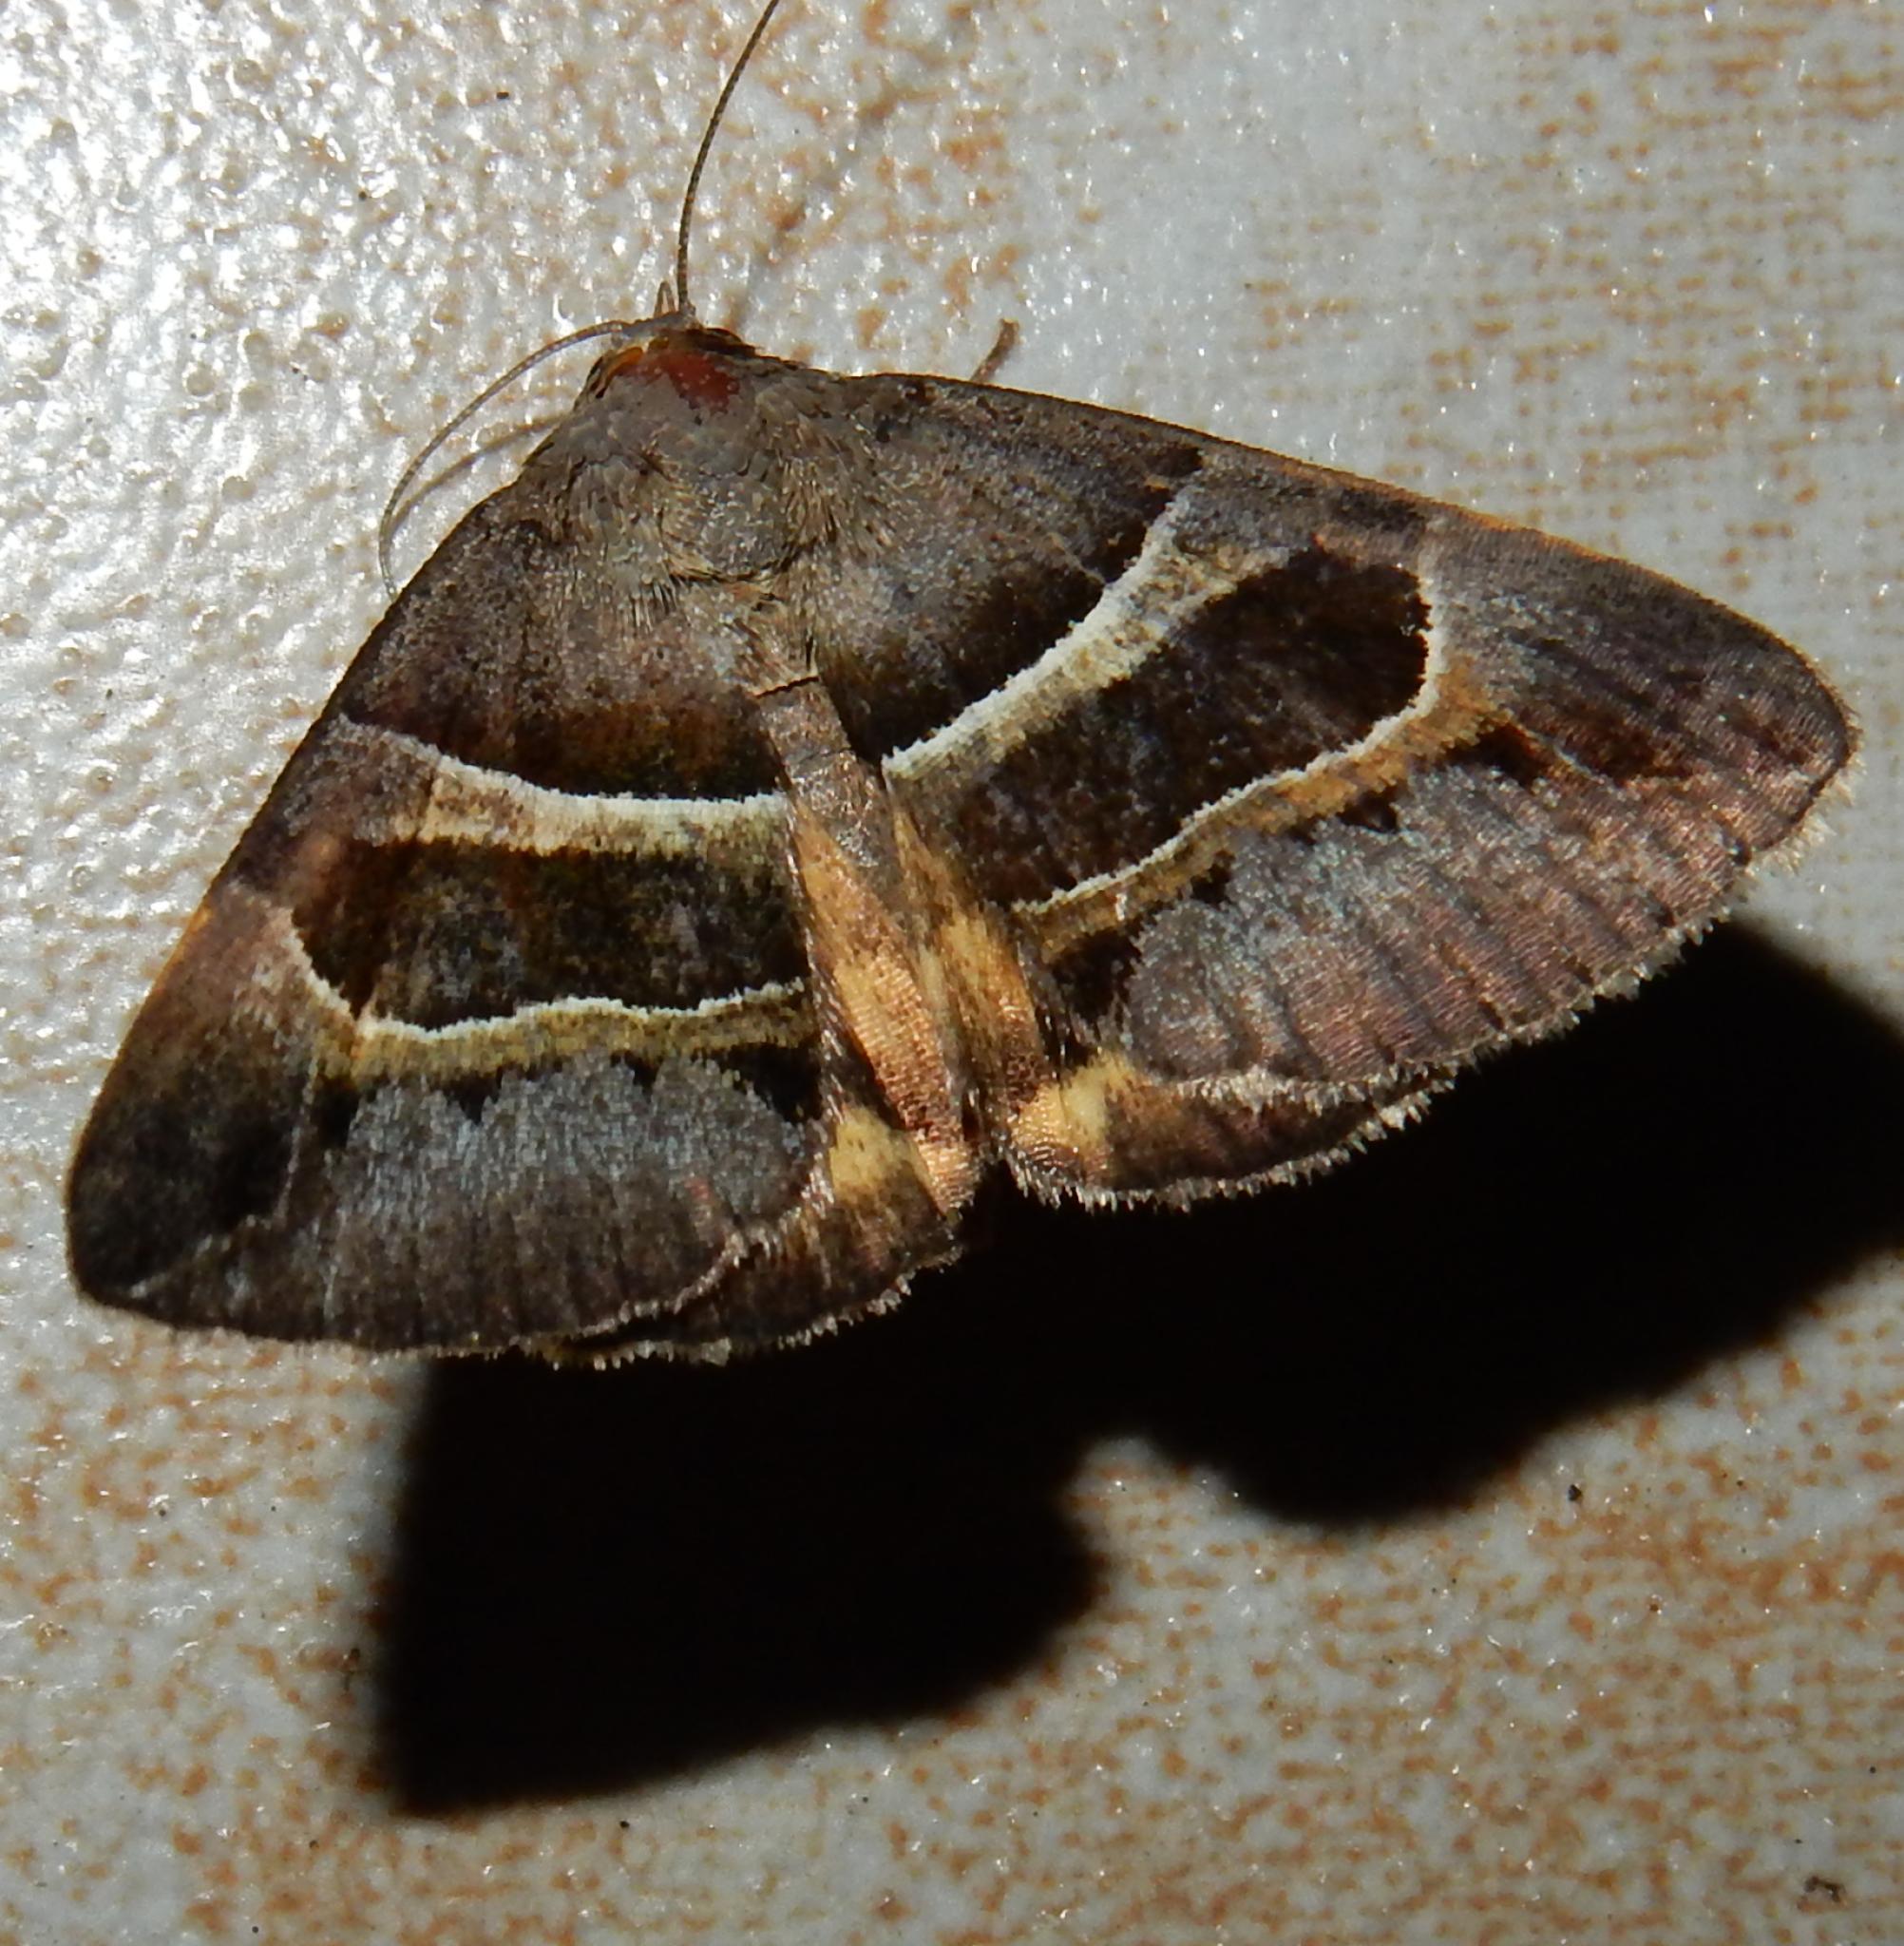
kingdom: Animalia
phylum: Arthropoda
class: Insecta
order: Lepidoptera
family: Erebidae
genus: Grammodes
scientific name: Grammodes euclidioides
